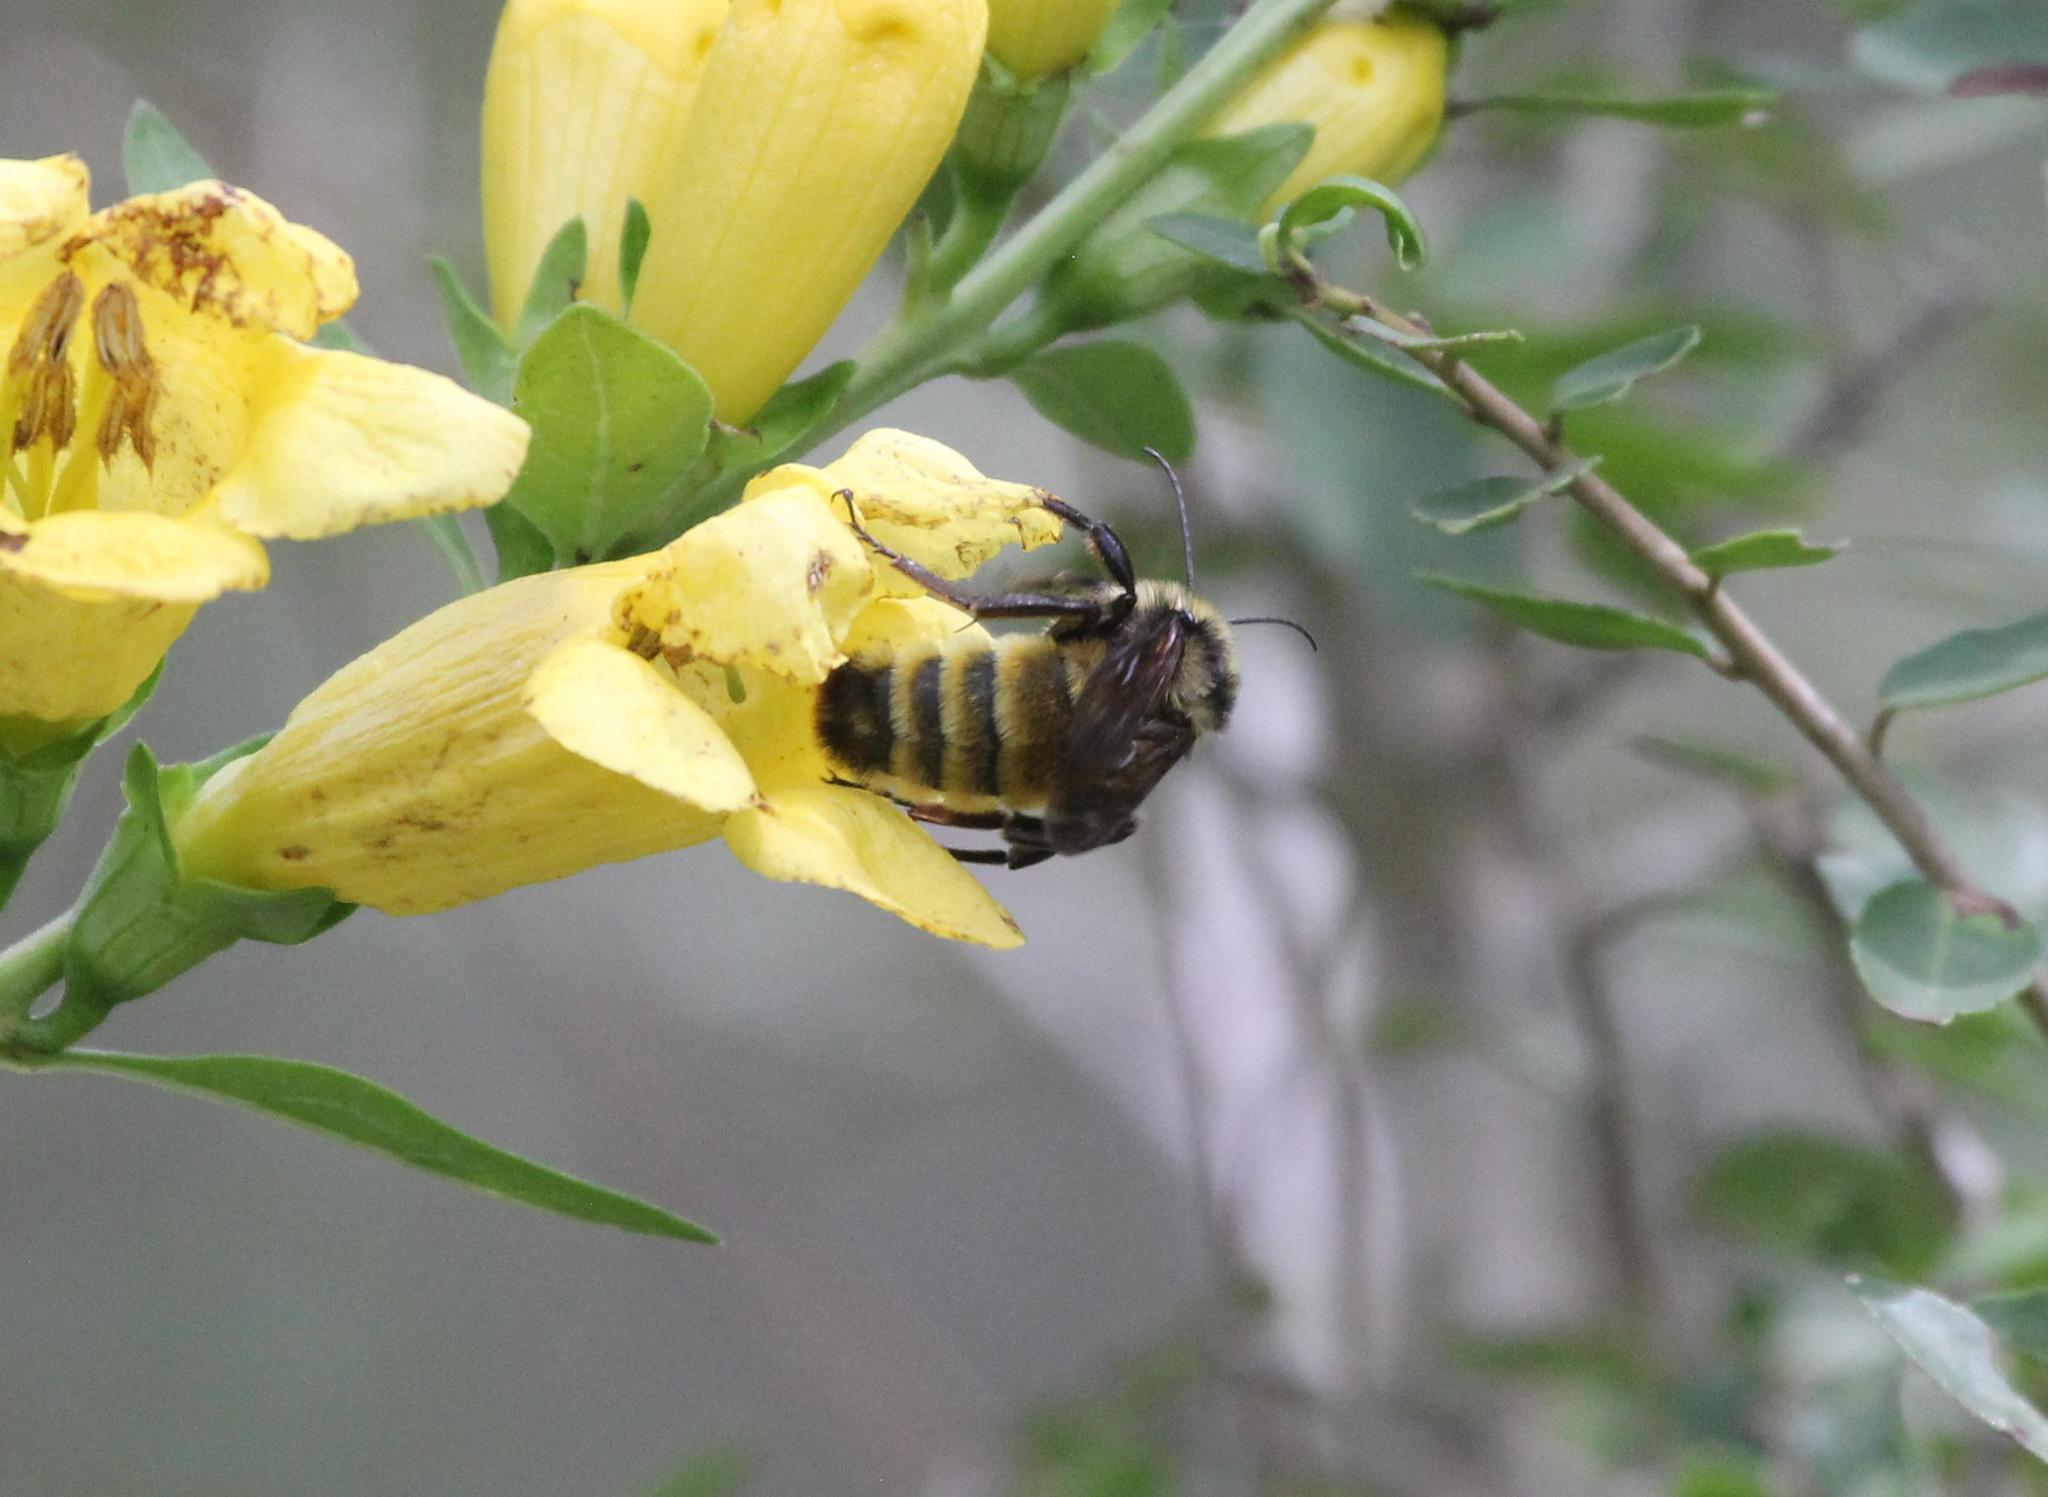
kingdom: Animalia
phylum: Arthropoda
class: Insecta
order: Hymenoptera
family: Apidae
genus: Bombus
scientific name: Bombus pensylvanicus
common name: Bumble bee
